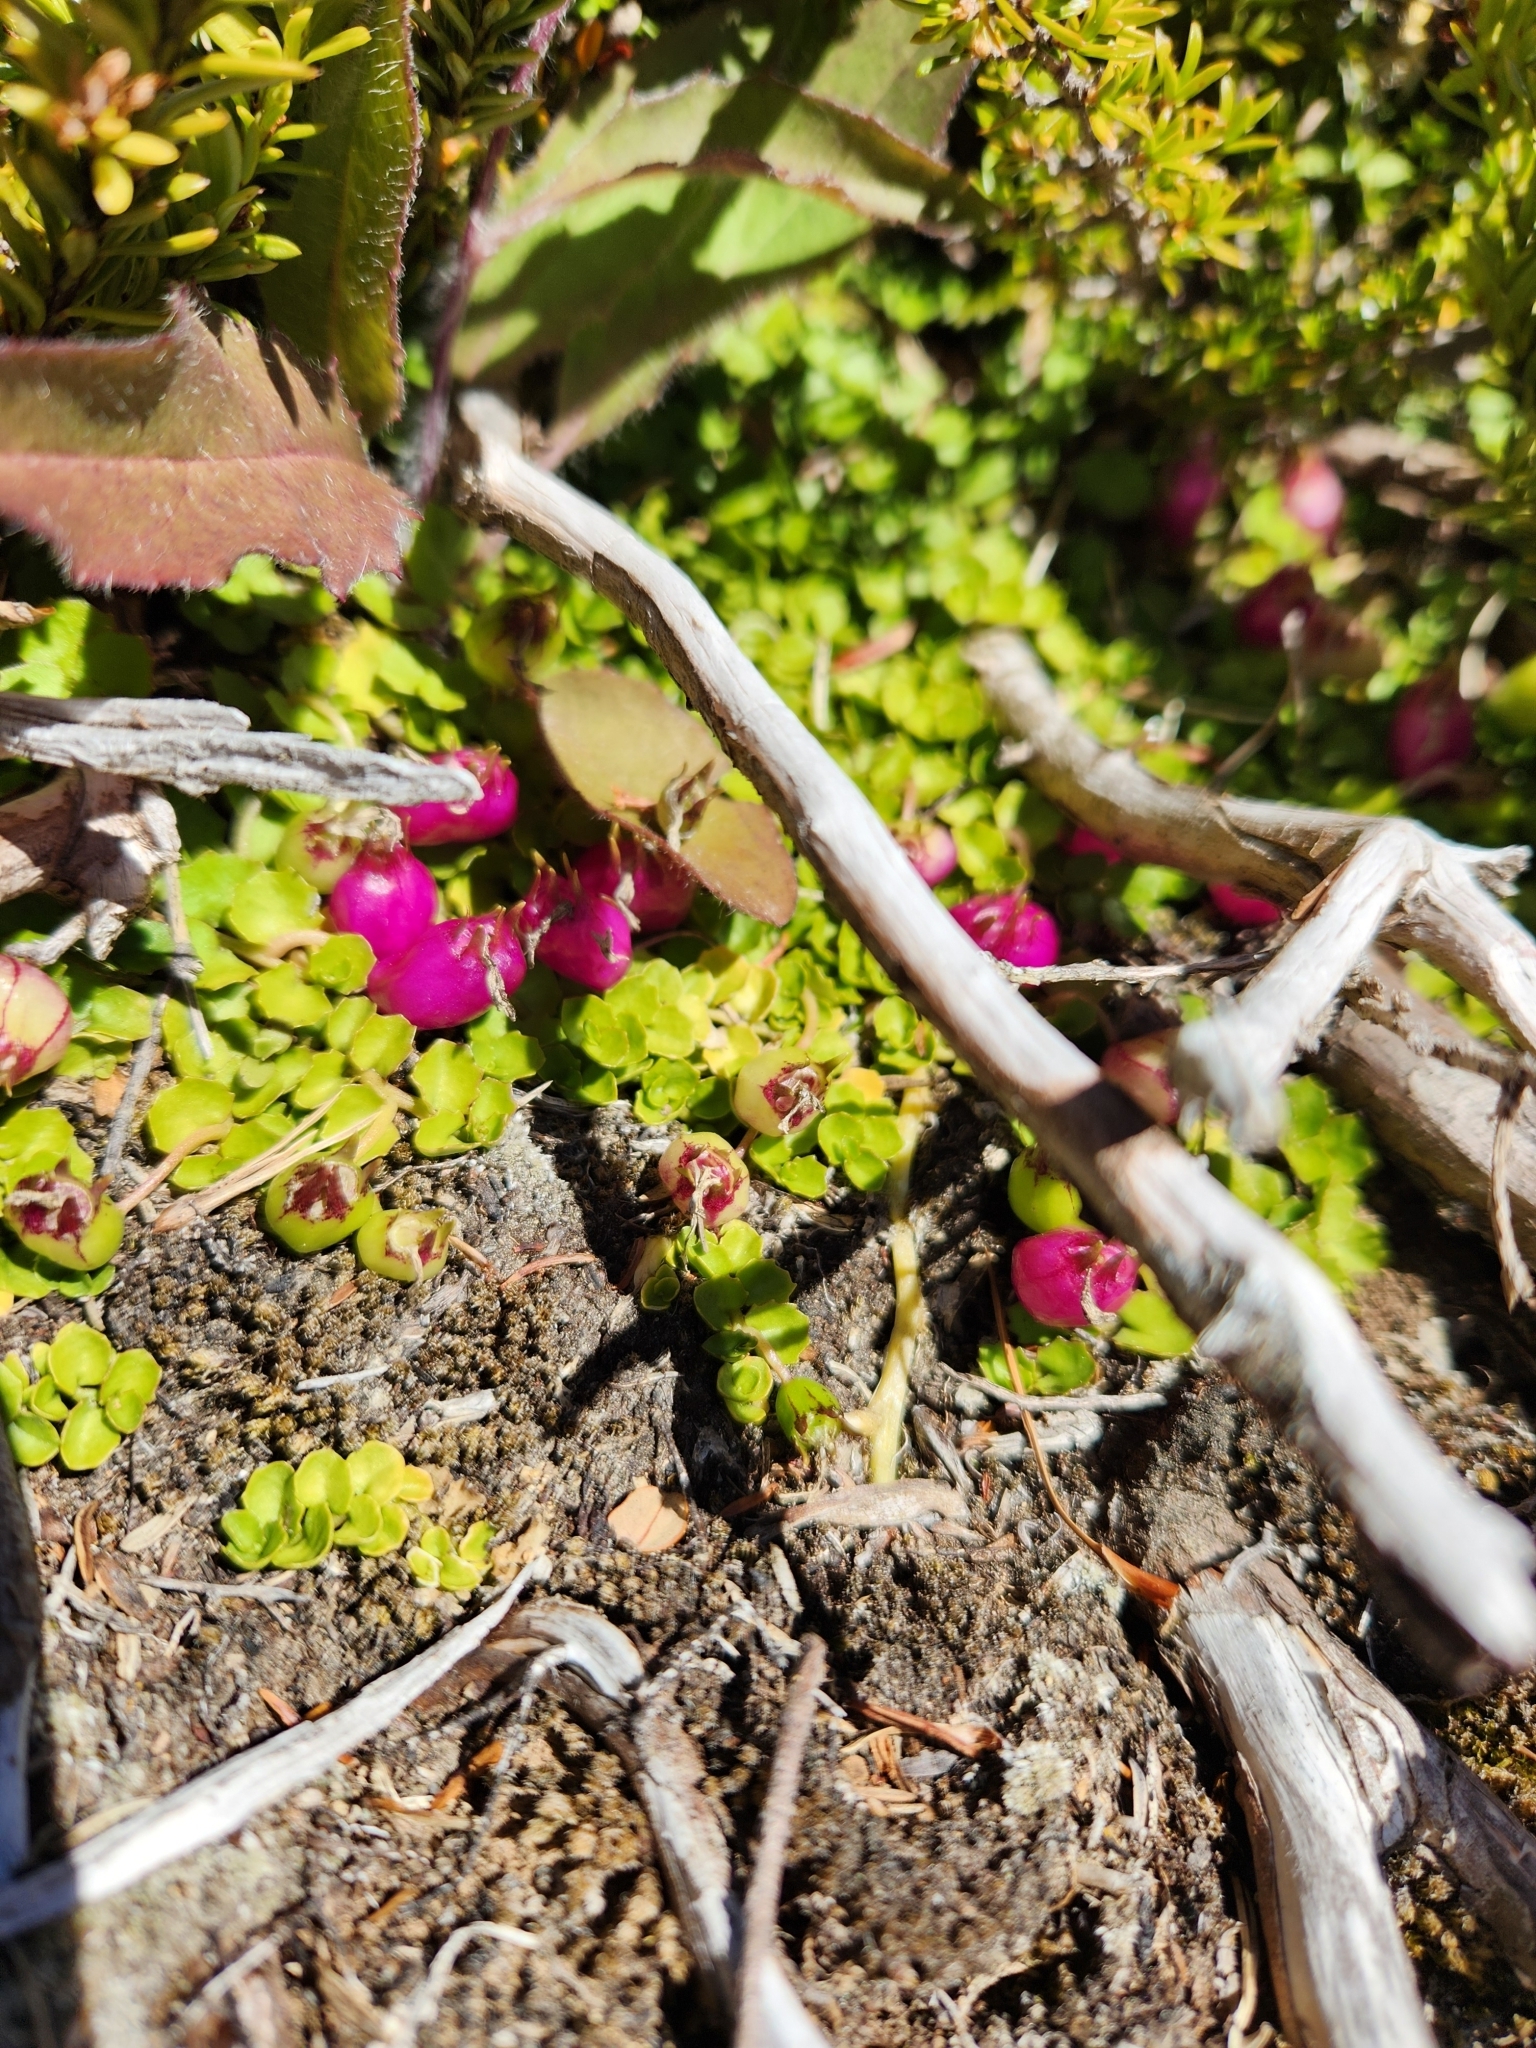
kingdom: Plantae
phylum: Tracheophyta
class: Magnoliopsida
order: Asterales
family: Campanulaceae
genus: Lobelia
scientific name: Lobelia angulata
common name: Lawn lobelia
